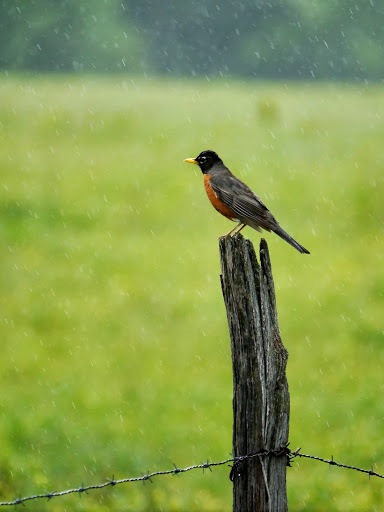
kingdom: Animalia
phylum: Chordata
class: Aves
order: Passeriformes
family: Turdidae
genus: Turdus
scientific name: Turdus migratorius
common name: American robin
